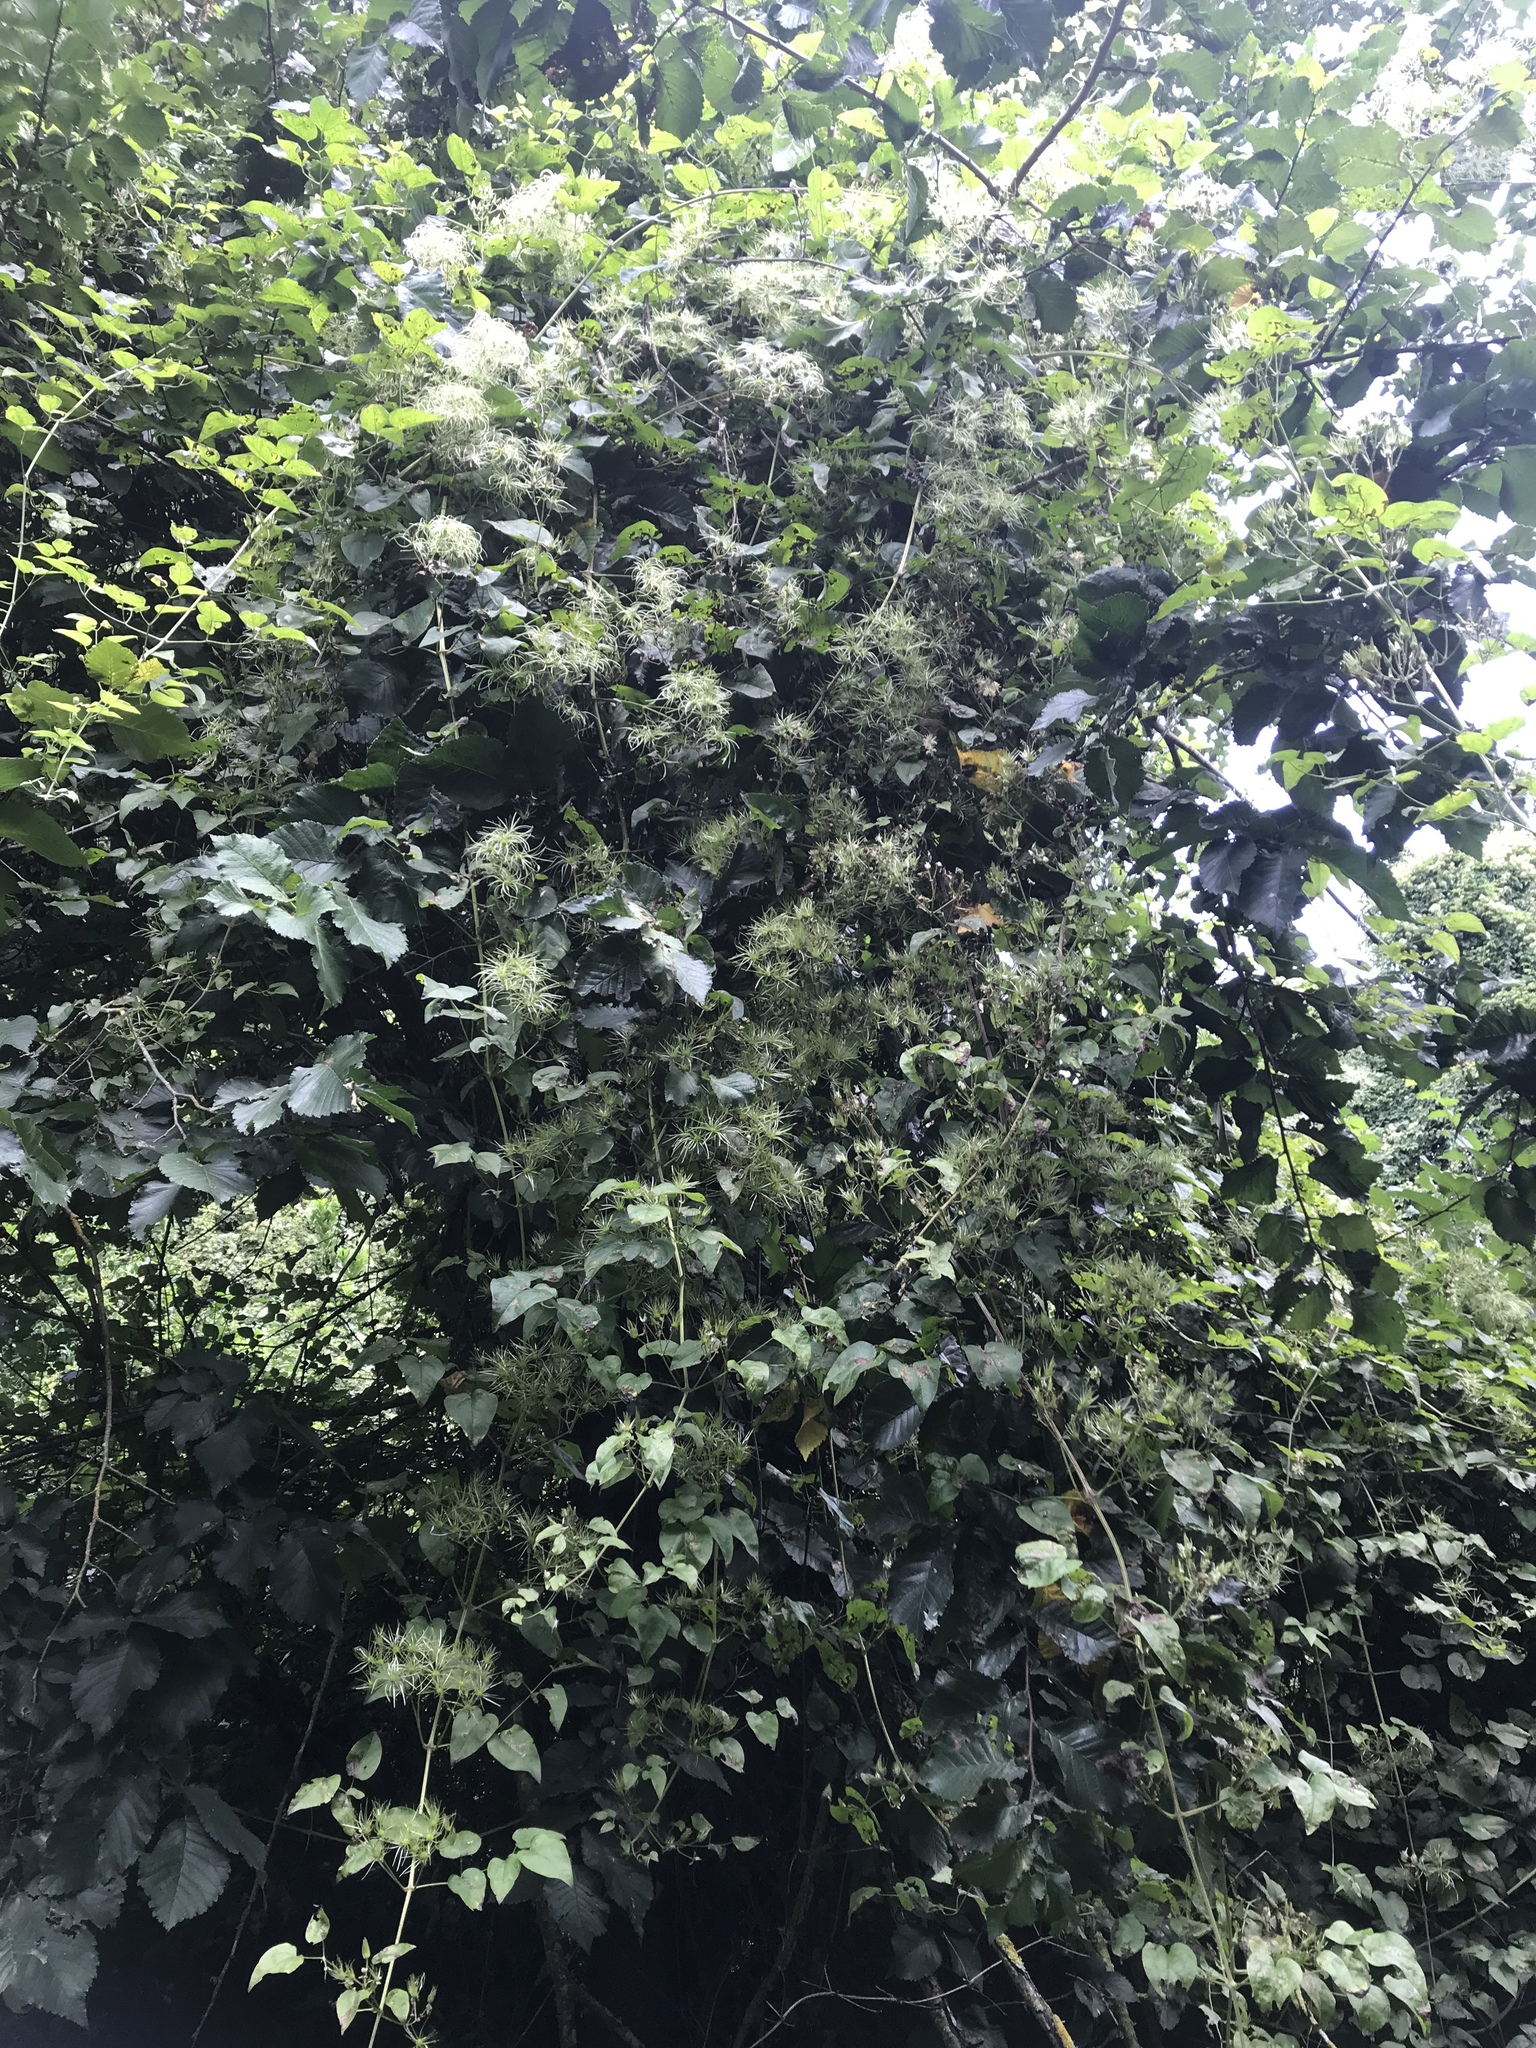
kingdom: Plantae
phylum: Tracheophyta
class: Magnoliopsida
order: Ranunculales
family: Ranunculaceae
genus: Clematis
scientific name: Clematis vitalba
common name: Evergreen clematis
